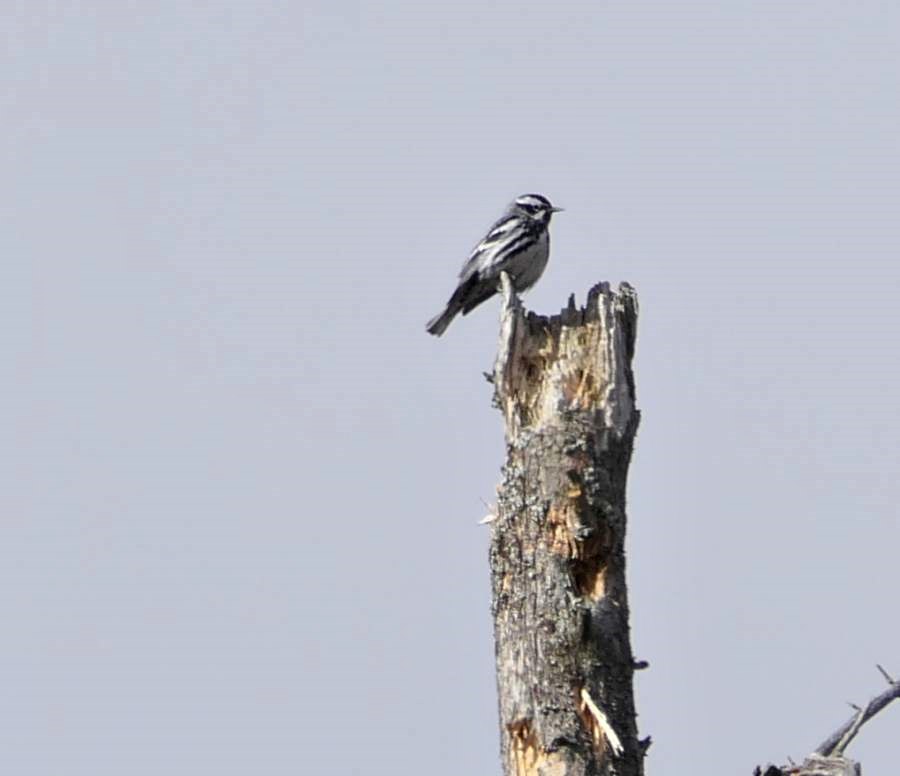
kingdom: Animalia
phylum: Chordata
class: Aves
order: Passeriformes
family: Parulidae
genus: Mniotilta
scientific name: Mniotilta varia
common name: Black-and-white warbler
